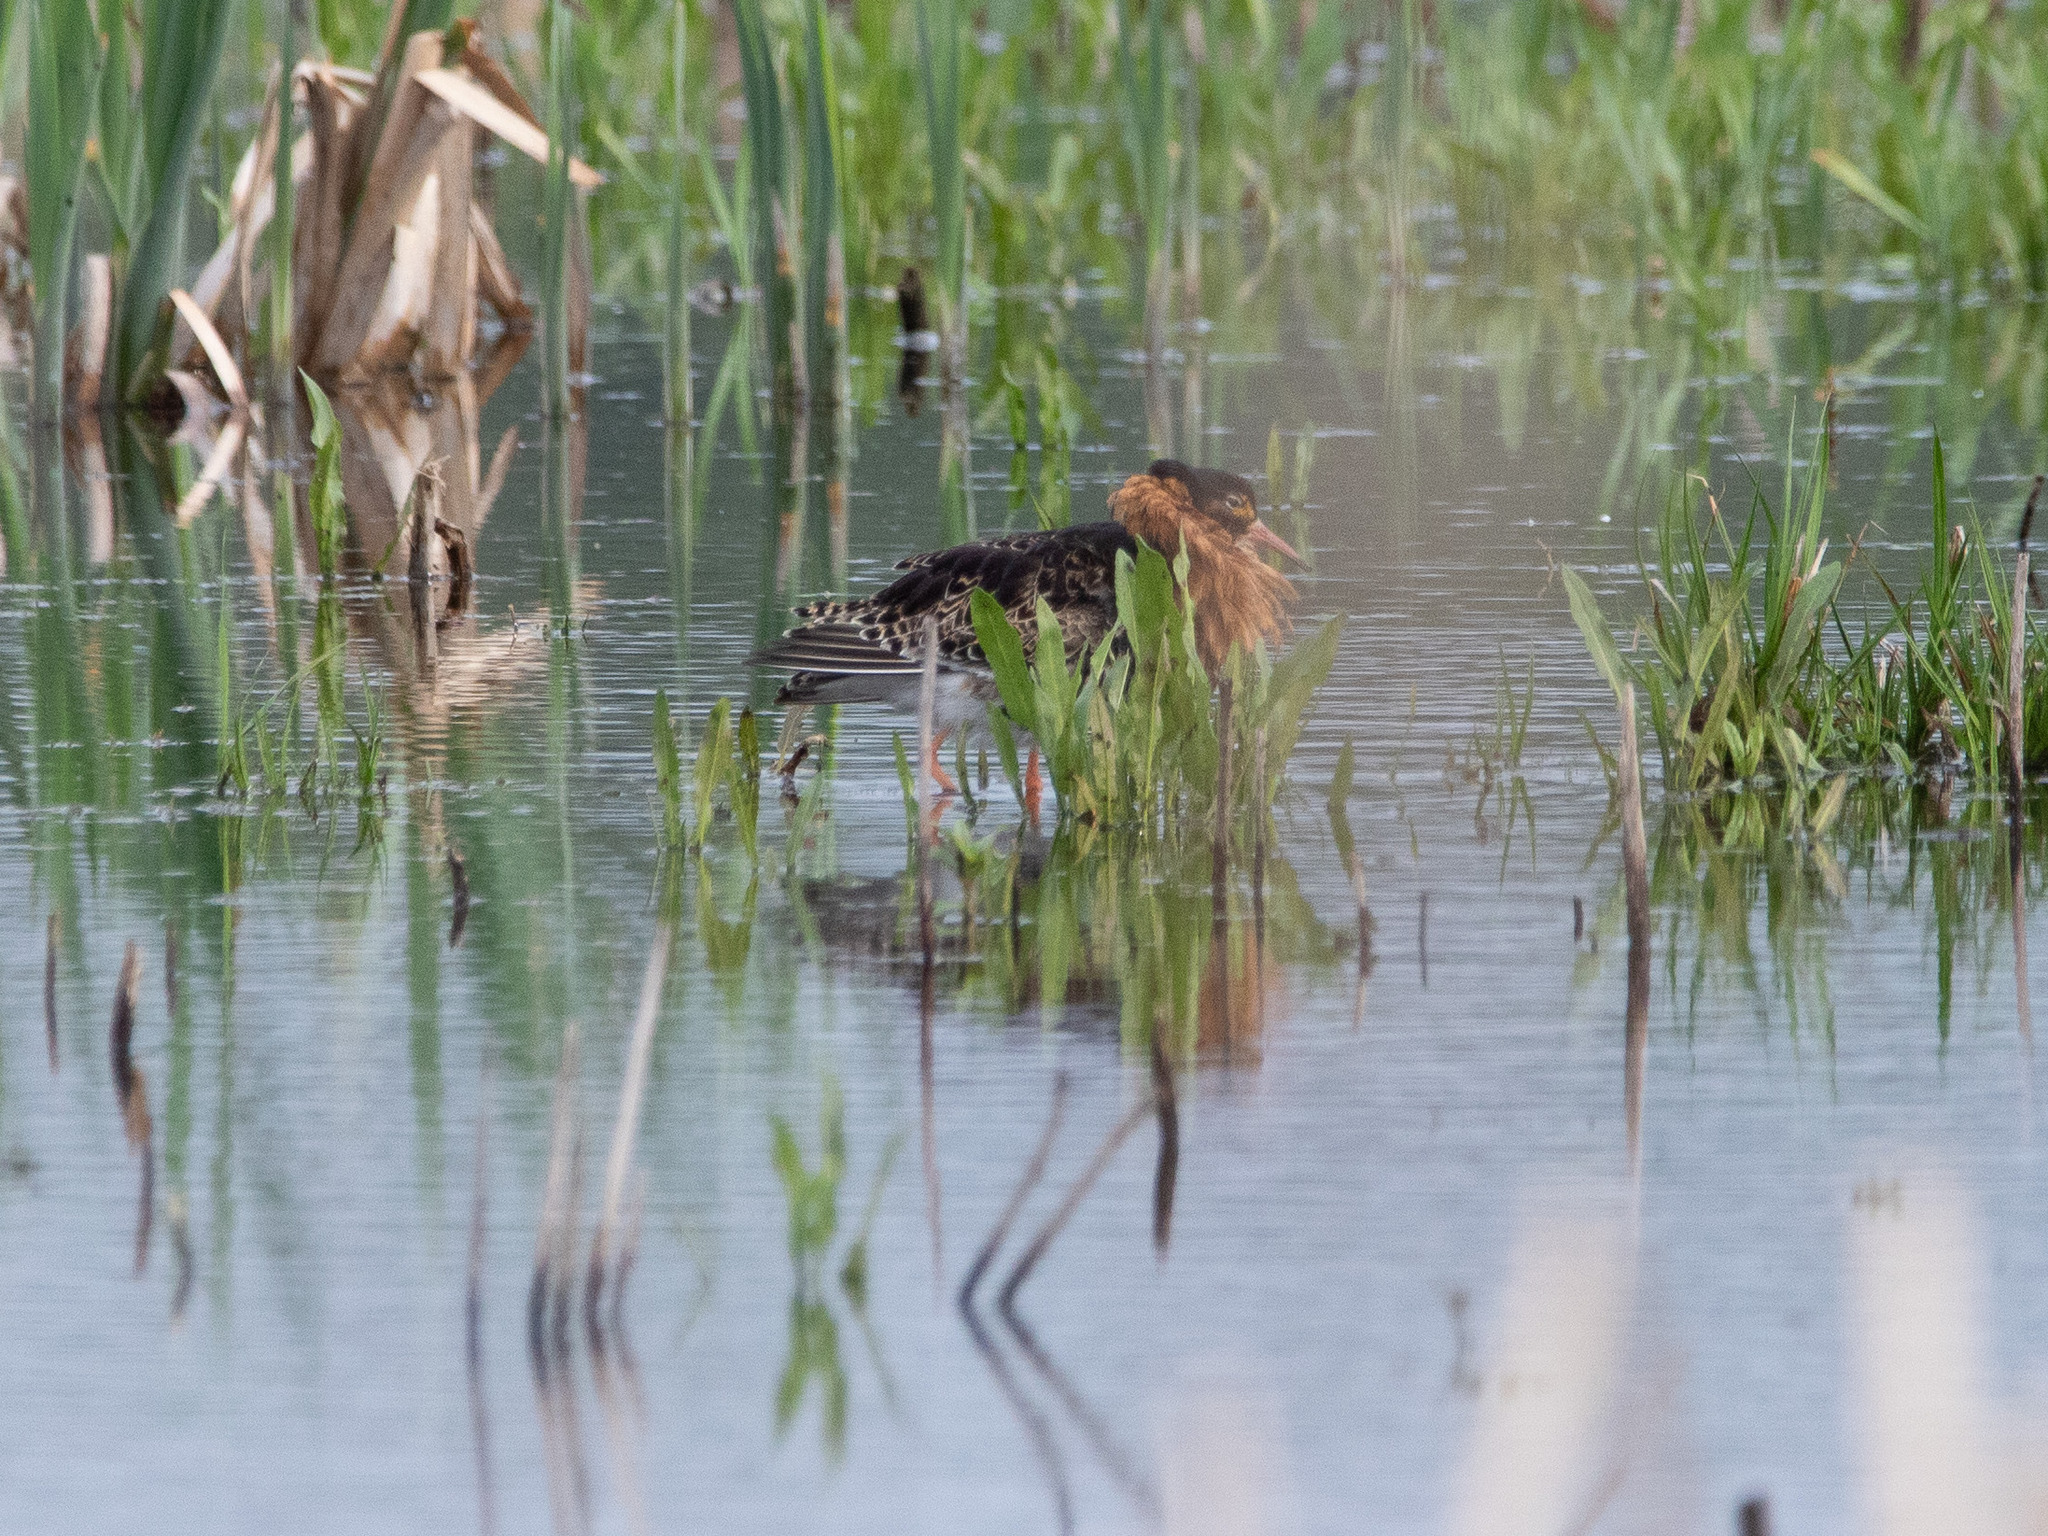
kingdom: Animalia
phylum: Chordata
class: Aves
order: Charadriiformes
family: Scolopacidae
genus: Calidris
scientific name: Calidris pugnax
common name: Ruff
